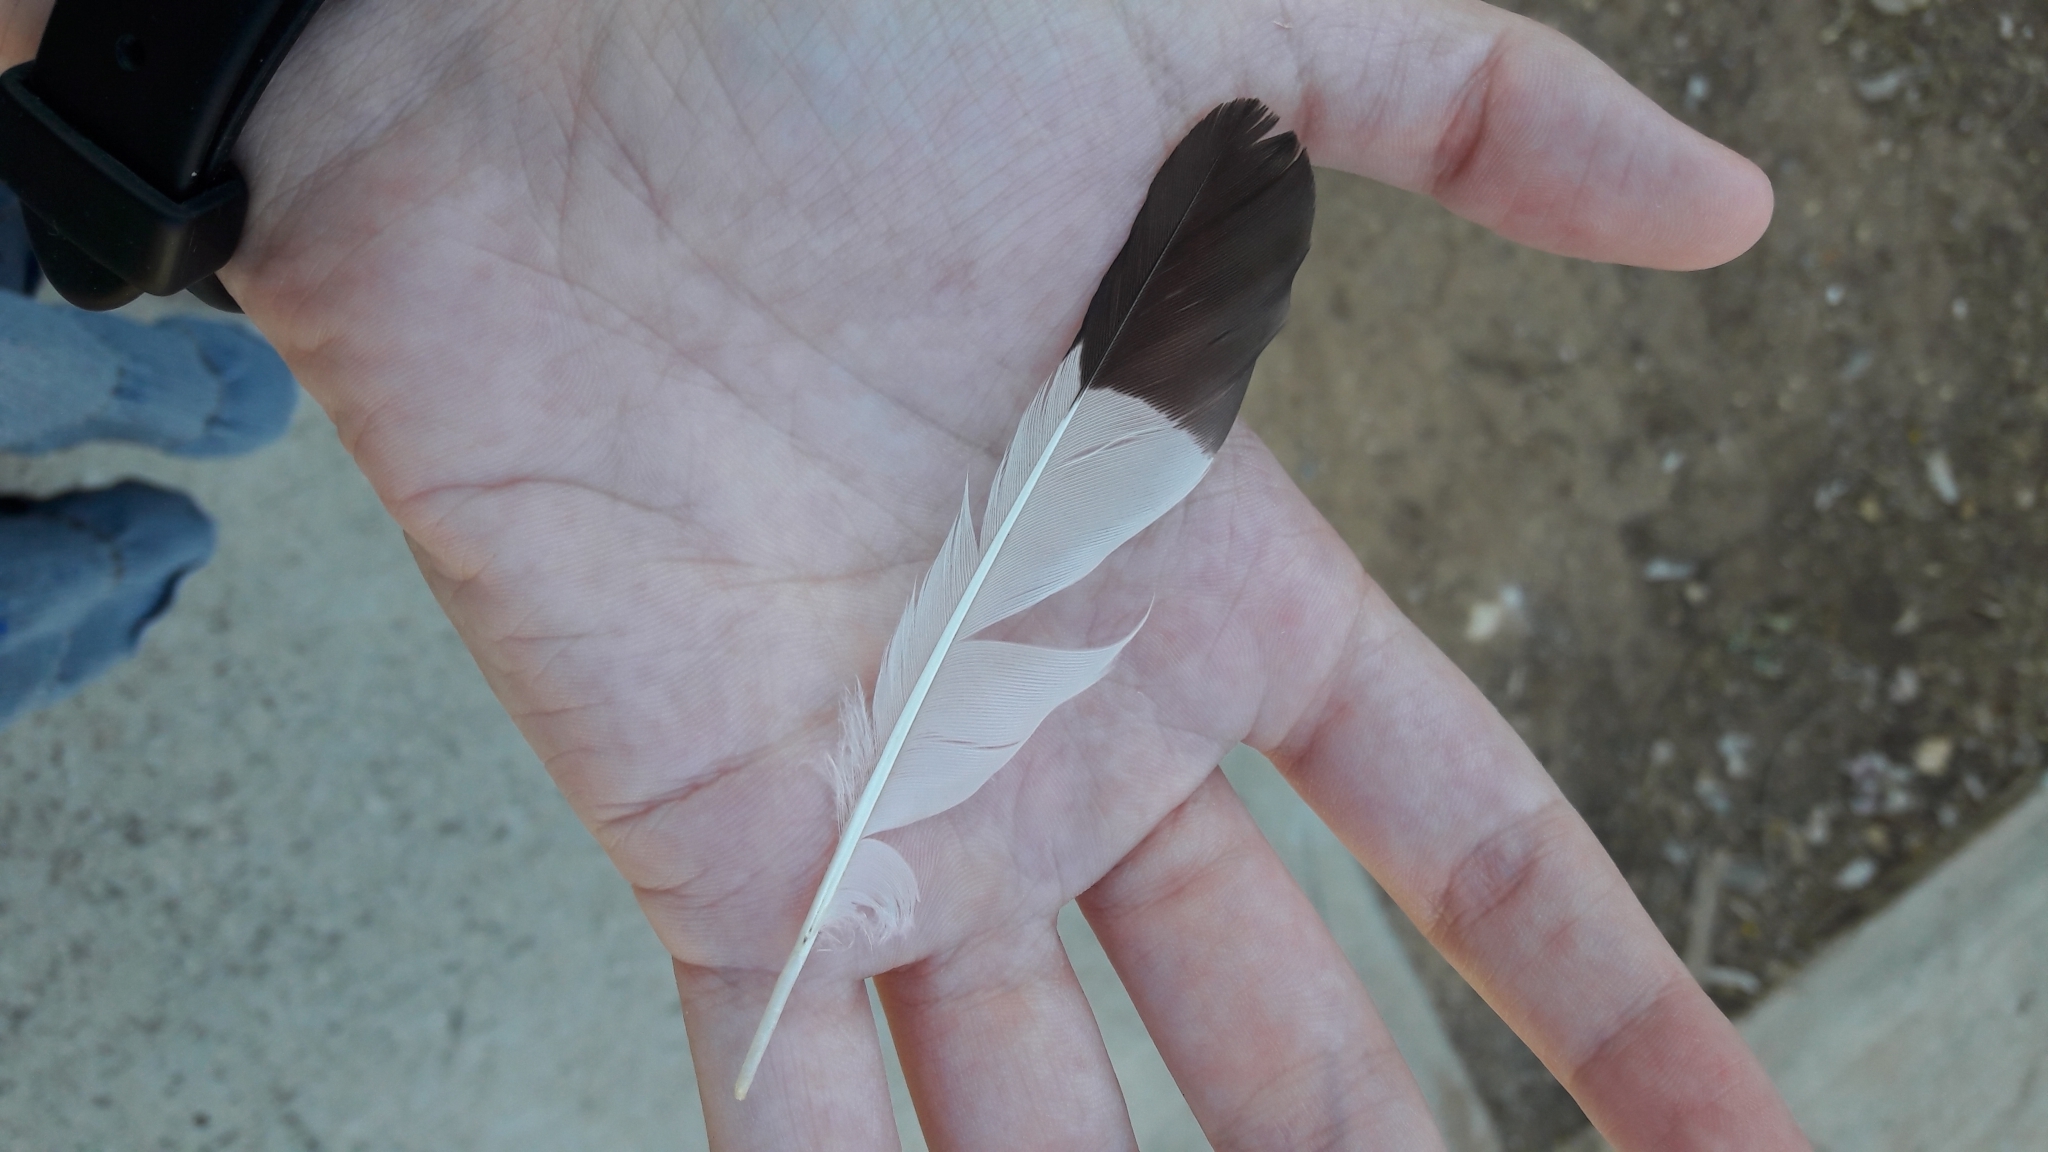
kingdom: Animalia
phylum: Chordata
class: Aves
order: Passeriformes
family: Sturnidae
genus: Acridotheres
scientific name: Acridotheres tristis
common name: Common myna
